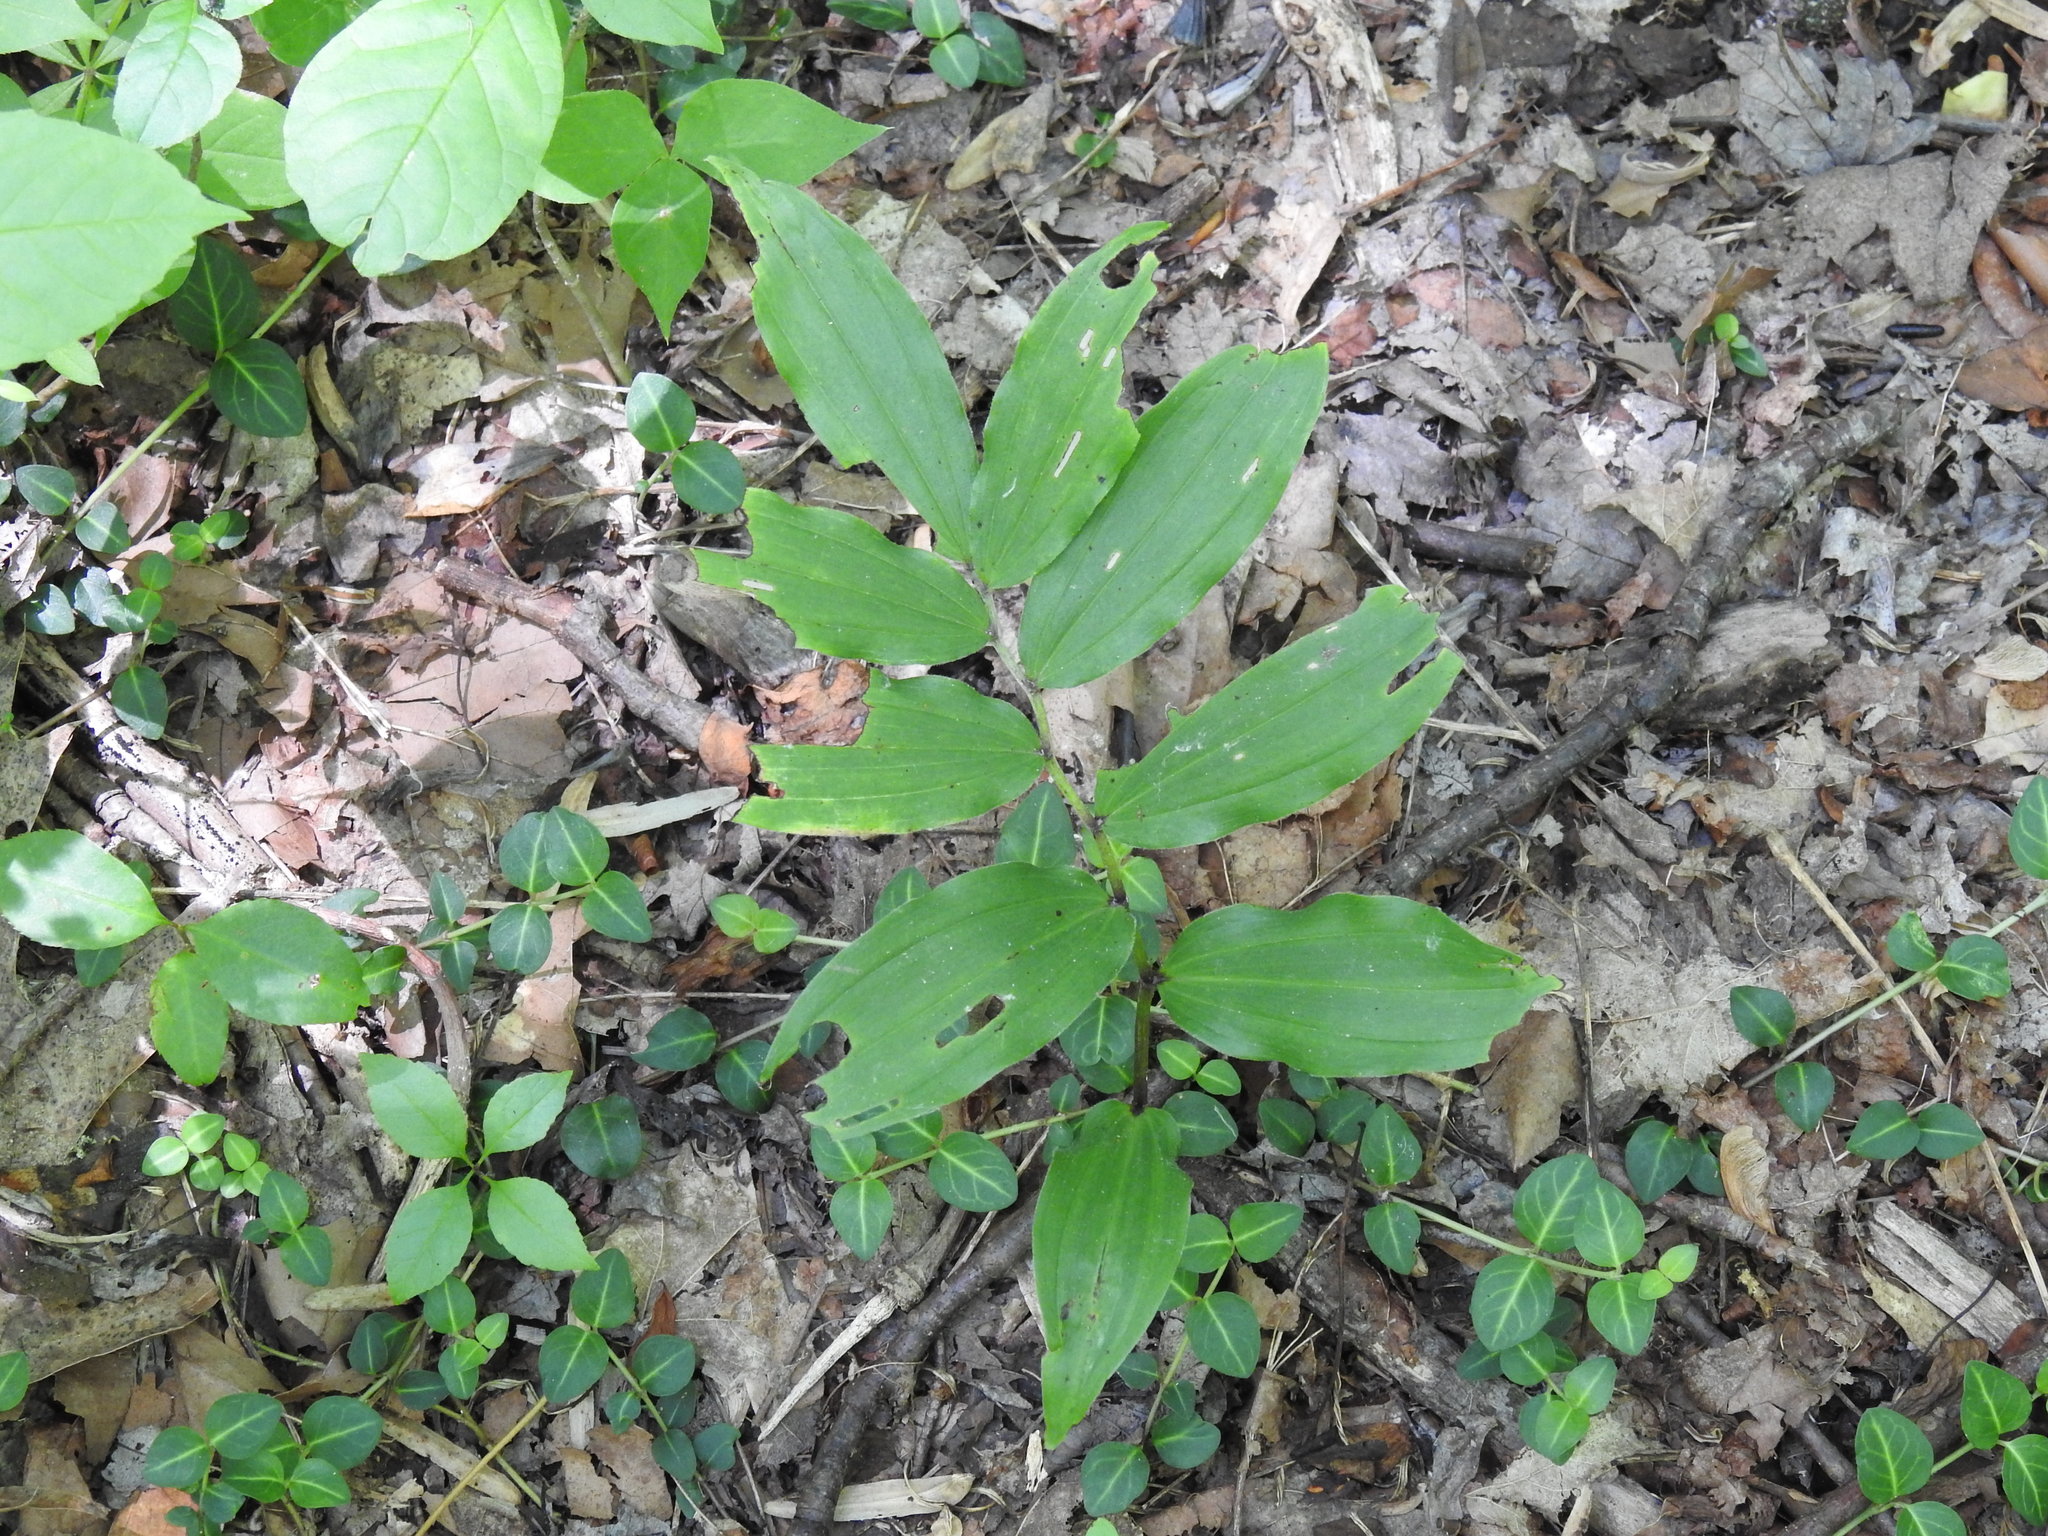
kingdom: Plantae
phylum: Tracheophyta
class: Liliopsida
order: Asparagales
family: Asparagaceae
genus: Maianthemum
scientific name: Maianthemum racemosum
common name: False spikenard
